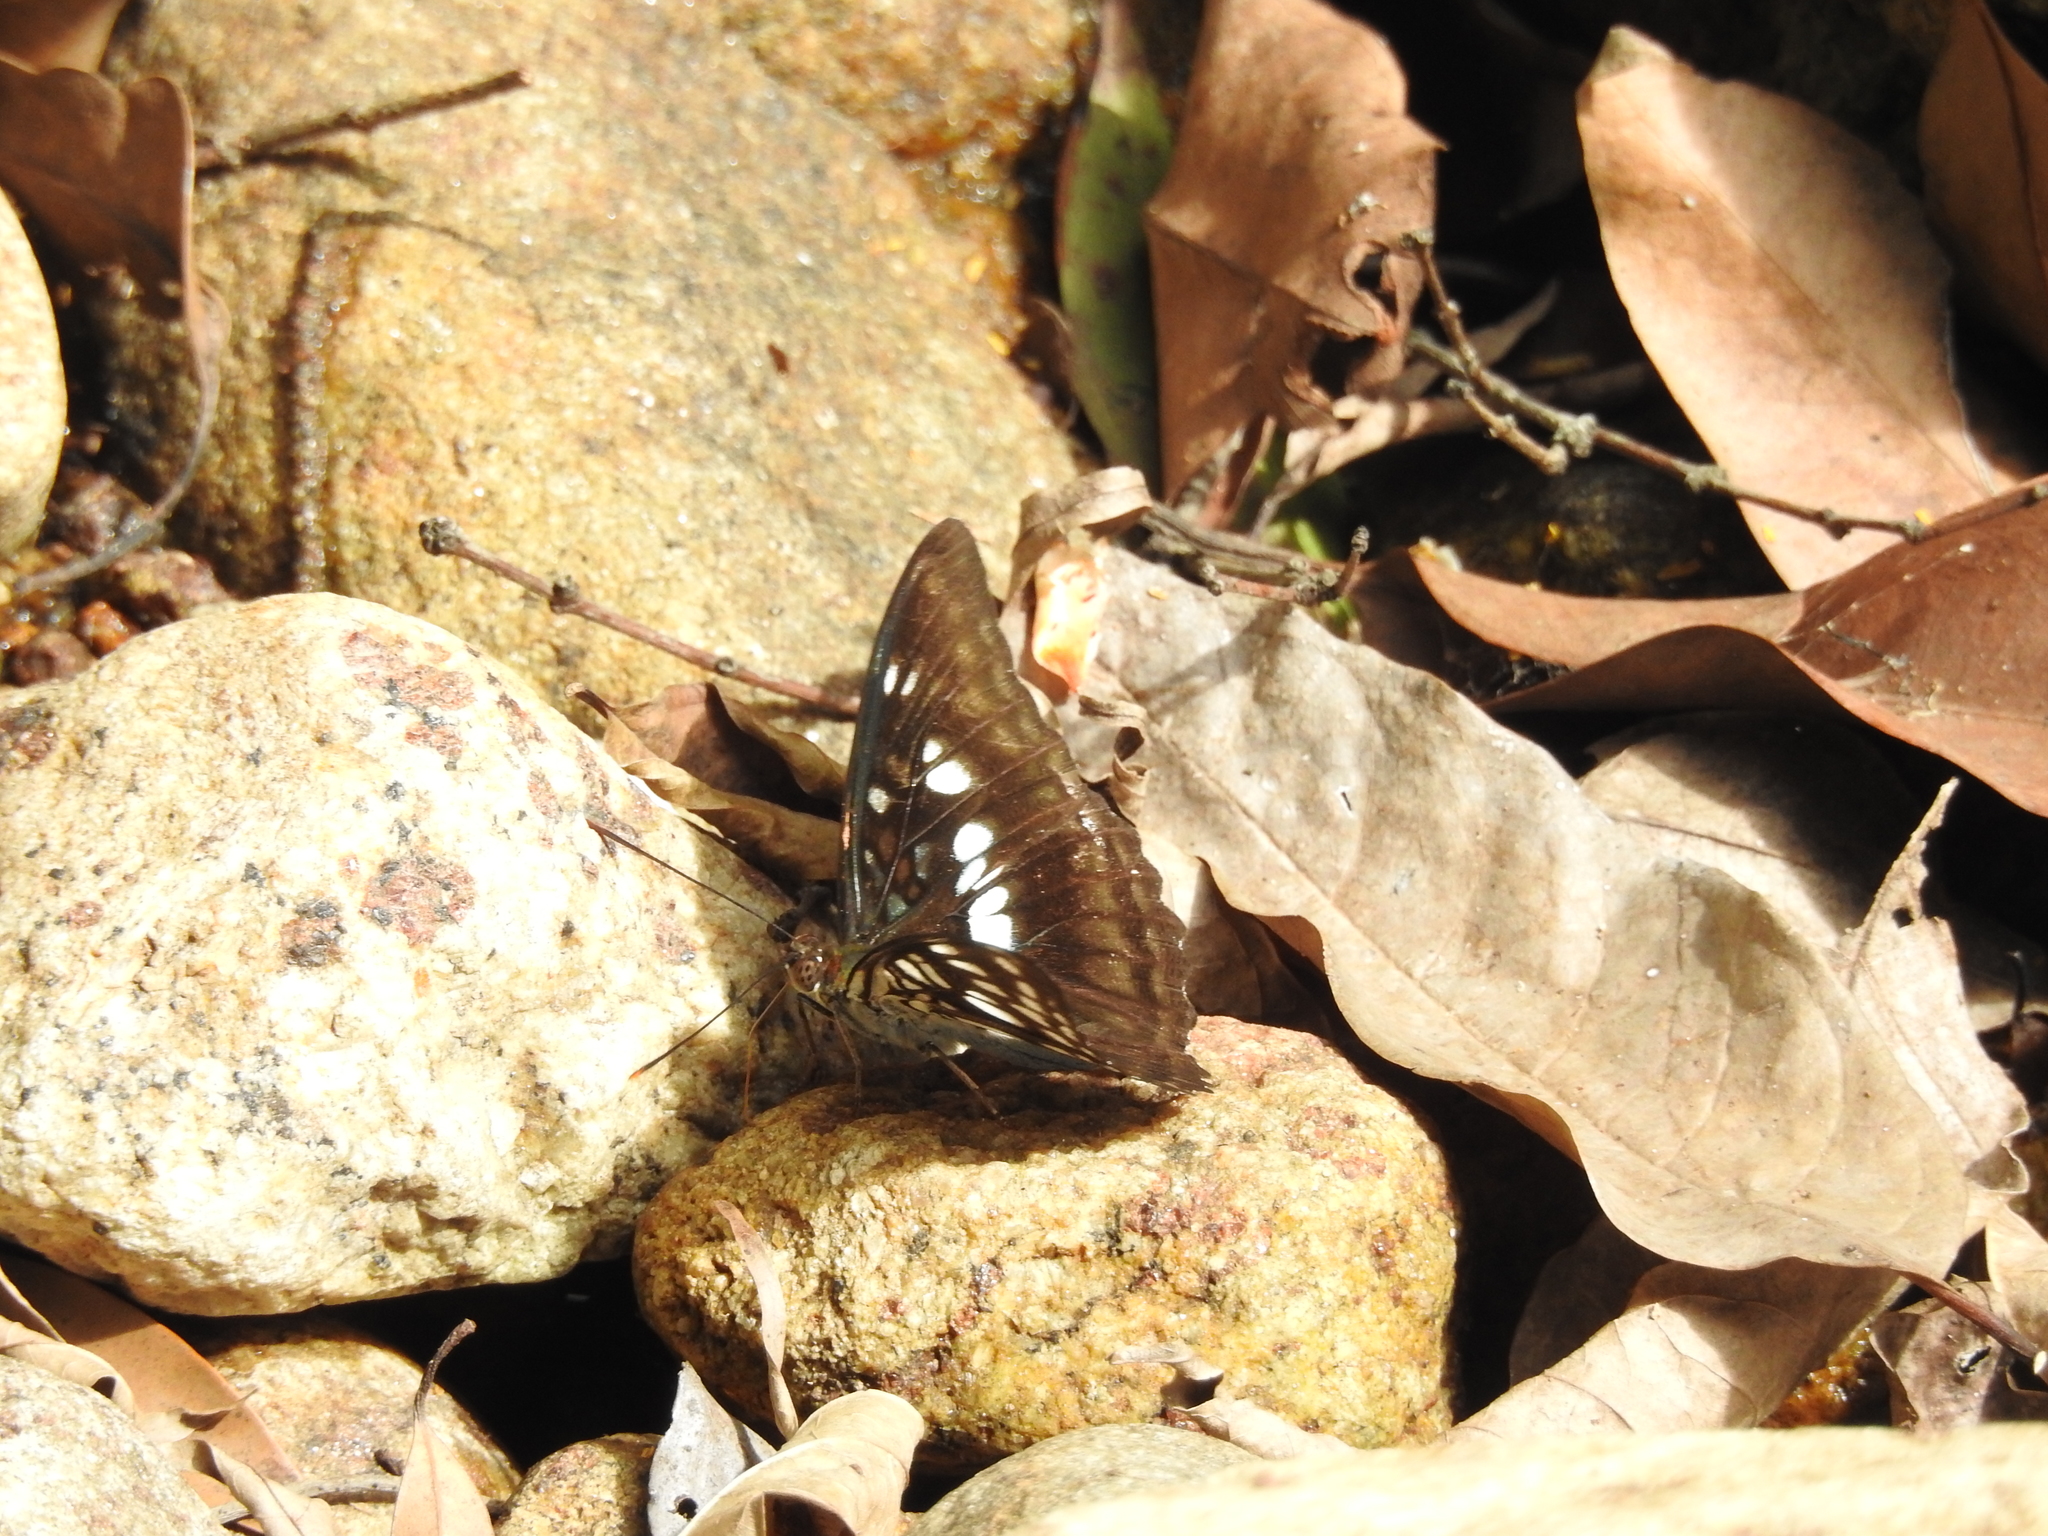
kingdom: Animalia
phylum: Arthropoda
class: Insecta
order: Lepidoptera
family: Nymphalidae
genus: Parathyma
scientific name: Parathyma ranga
